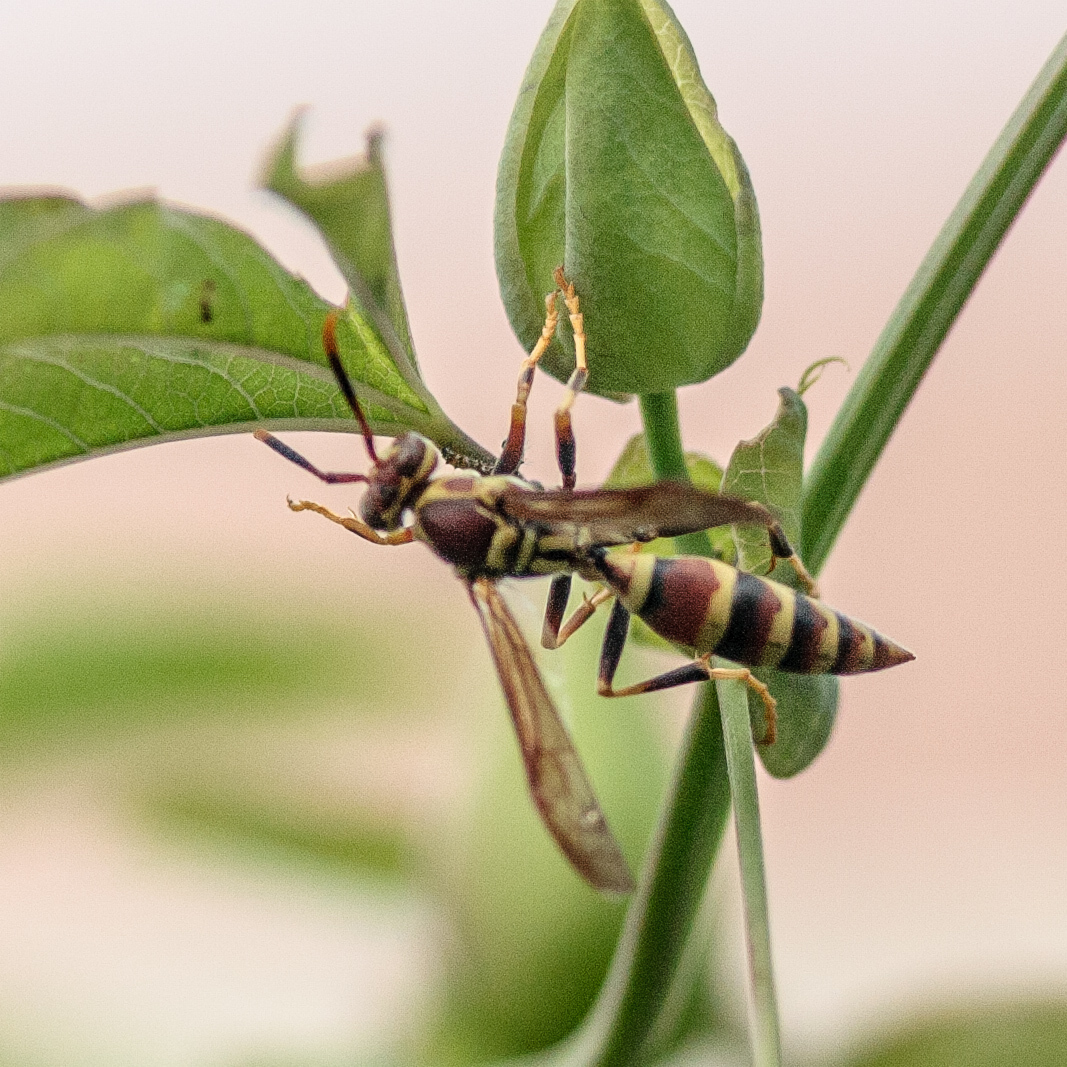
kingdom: Animalia
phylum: Arthropoda
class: Insecta
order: Hymenoptera
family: Eumenidae
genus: Polistes
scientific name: Polistes exclamans
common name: Paper wasp
